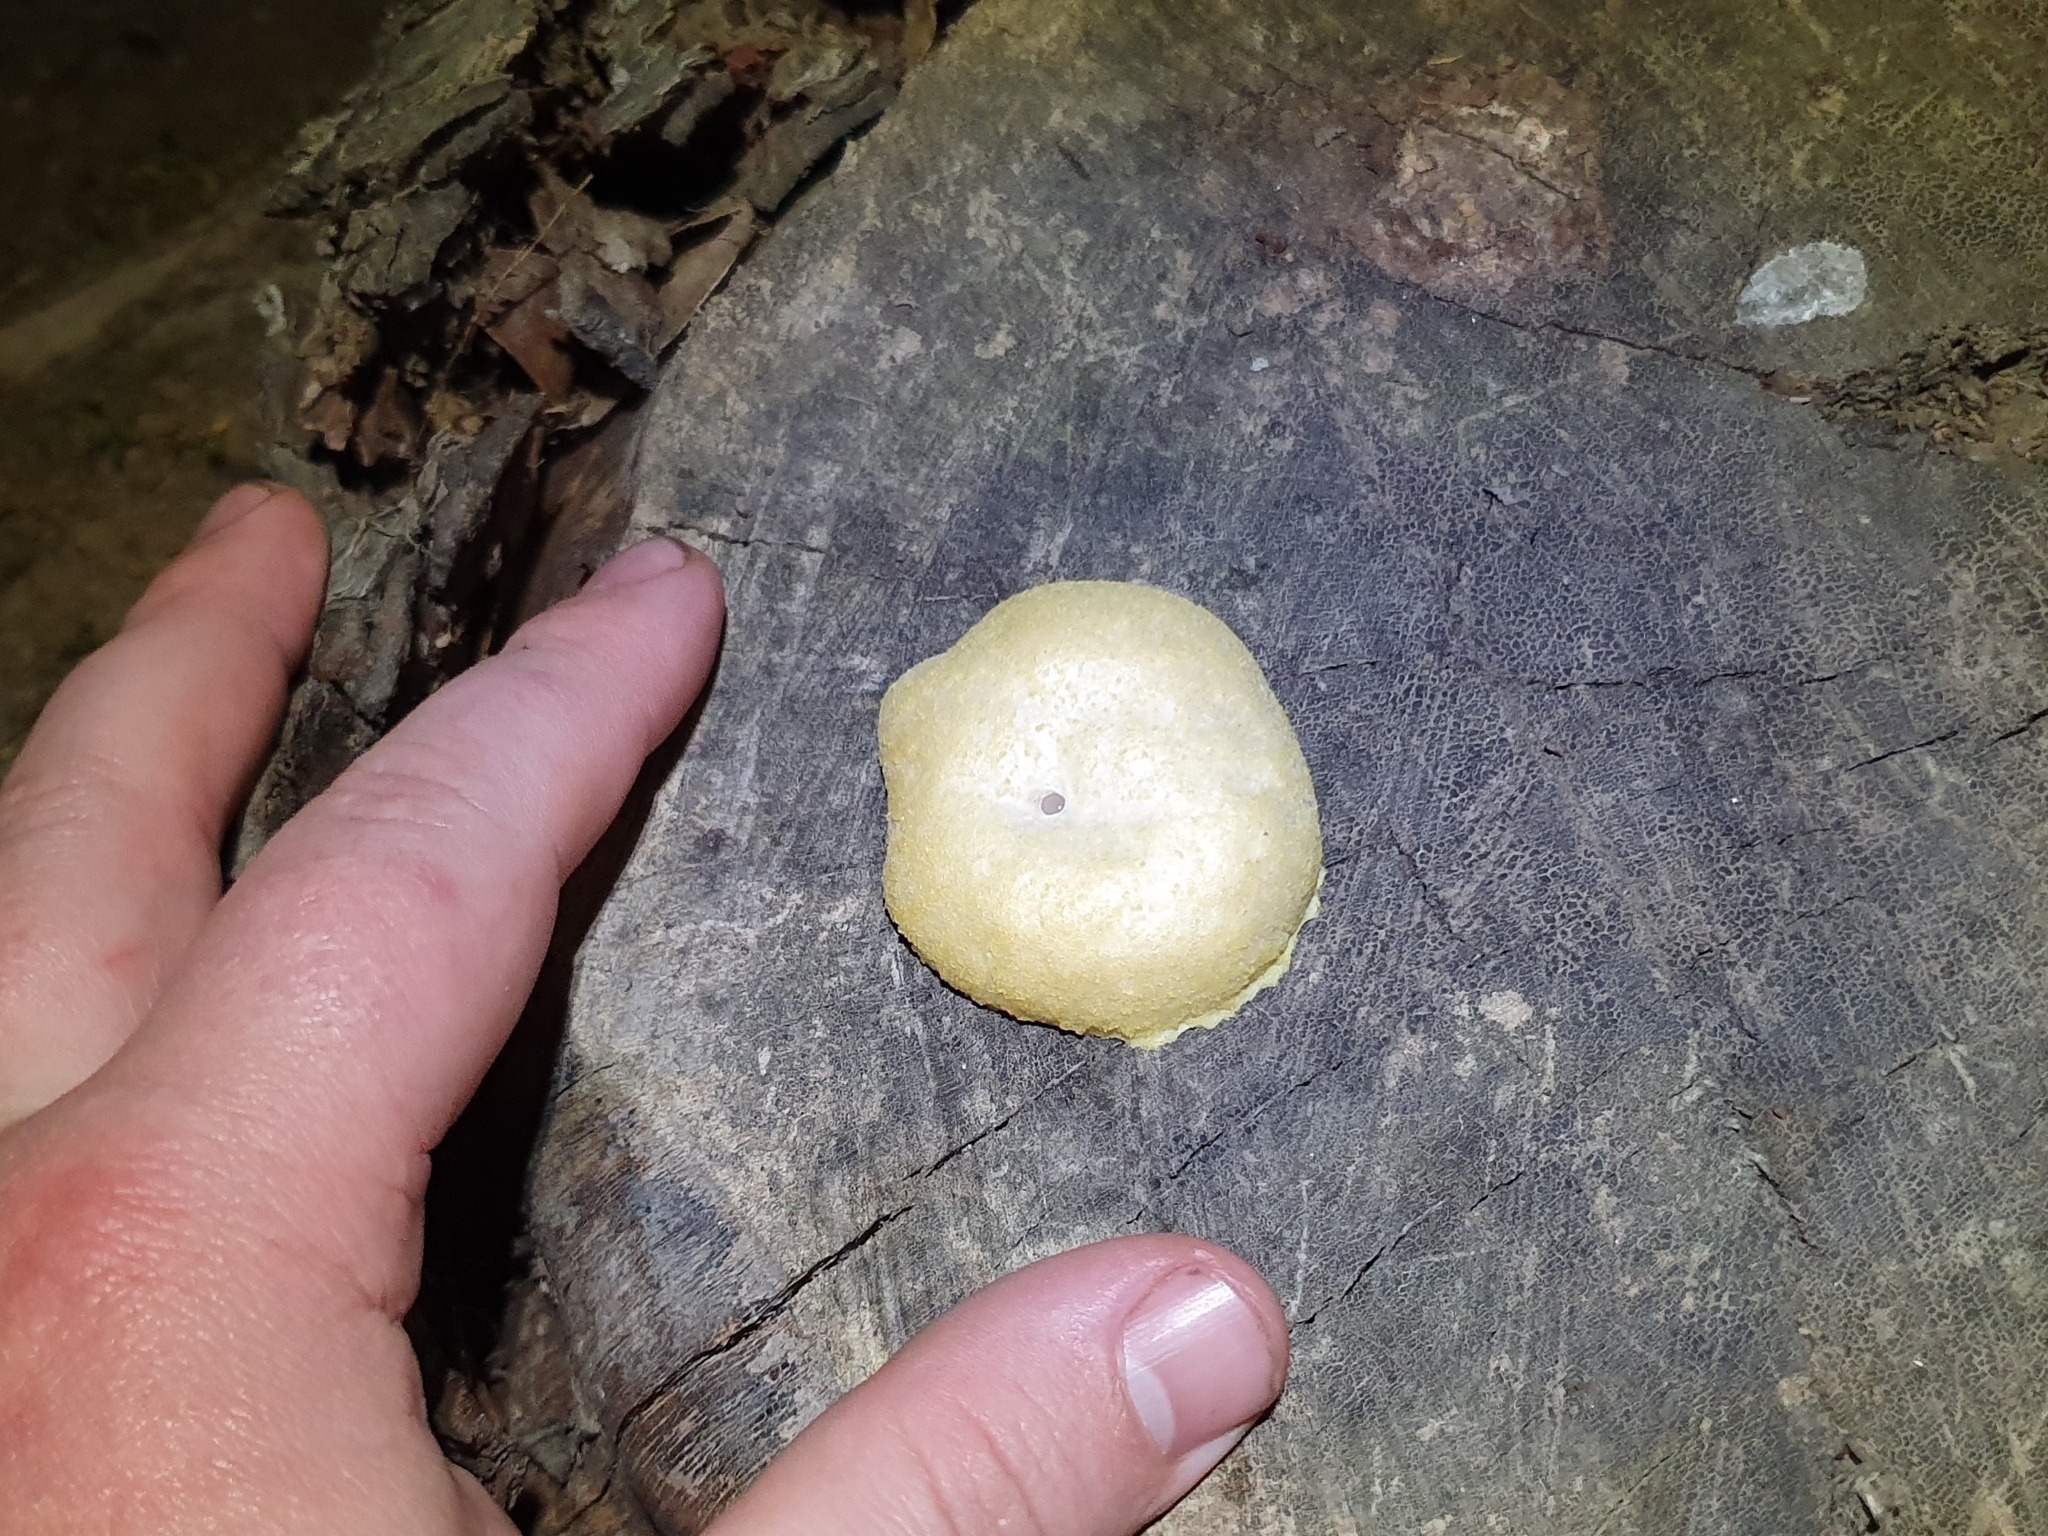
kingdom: Protozoa
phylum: Mycetozoa
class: Myxomycetes
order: Cribrariales
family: Tubiferaceae
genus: Reticularia
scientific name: Reticularia lycoperdon
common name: False puffball
